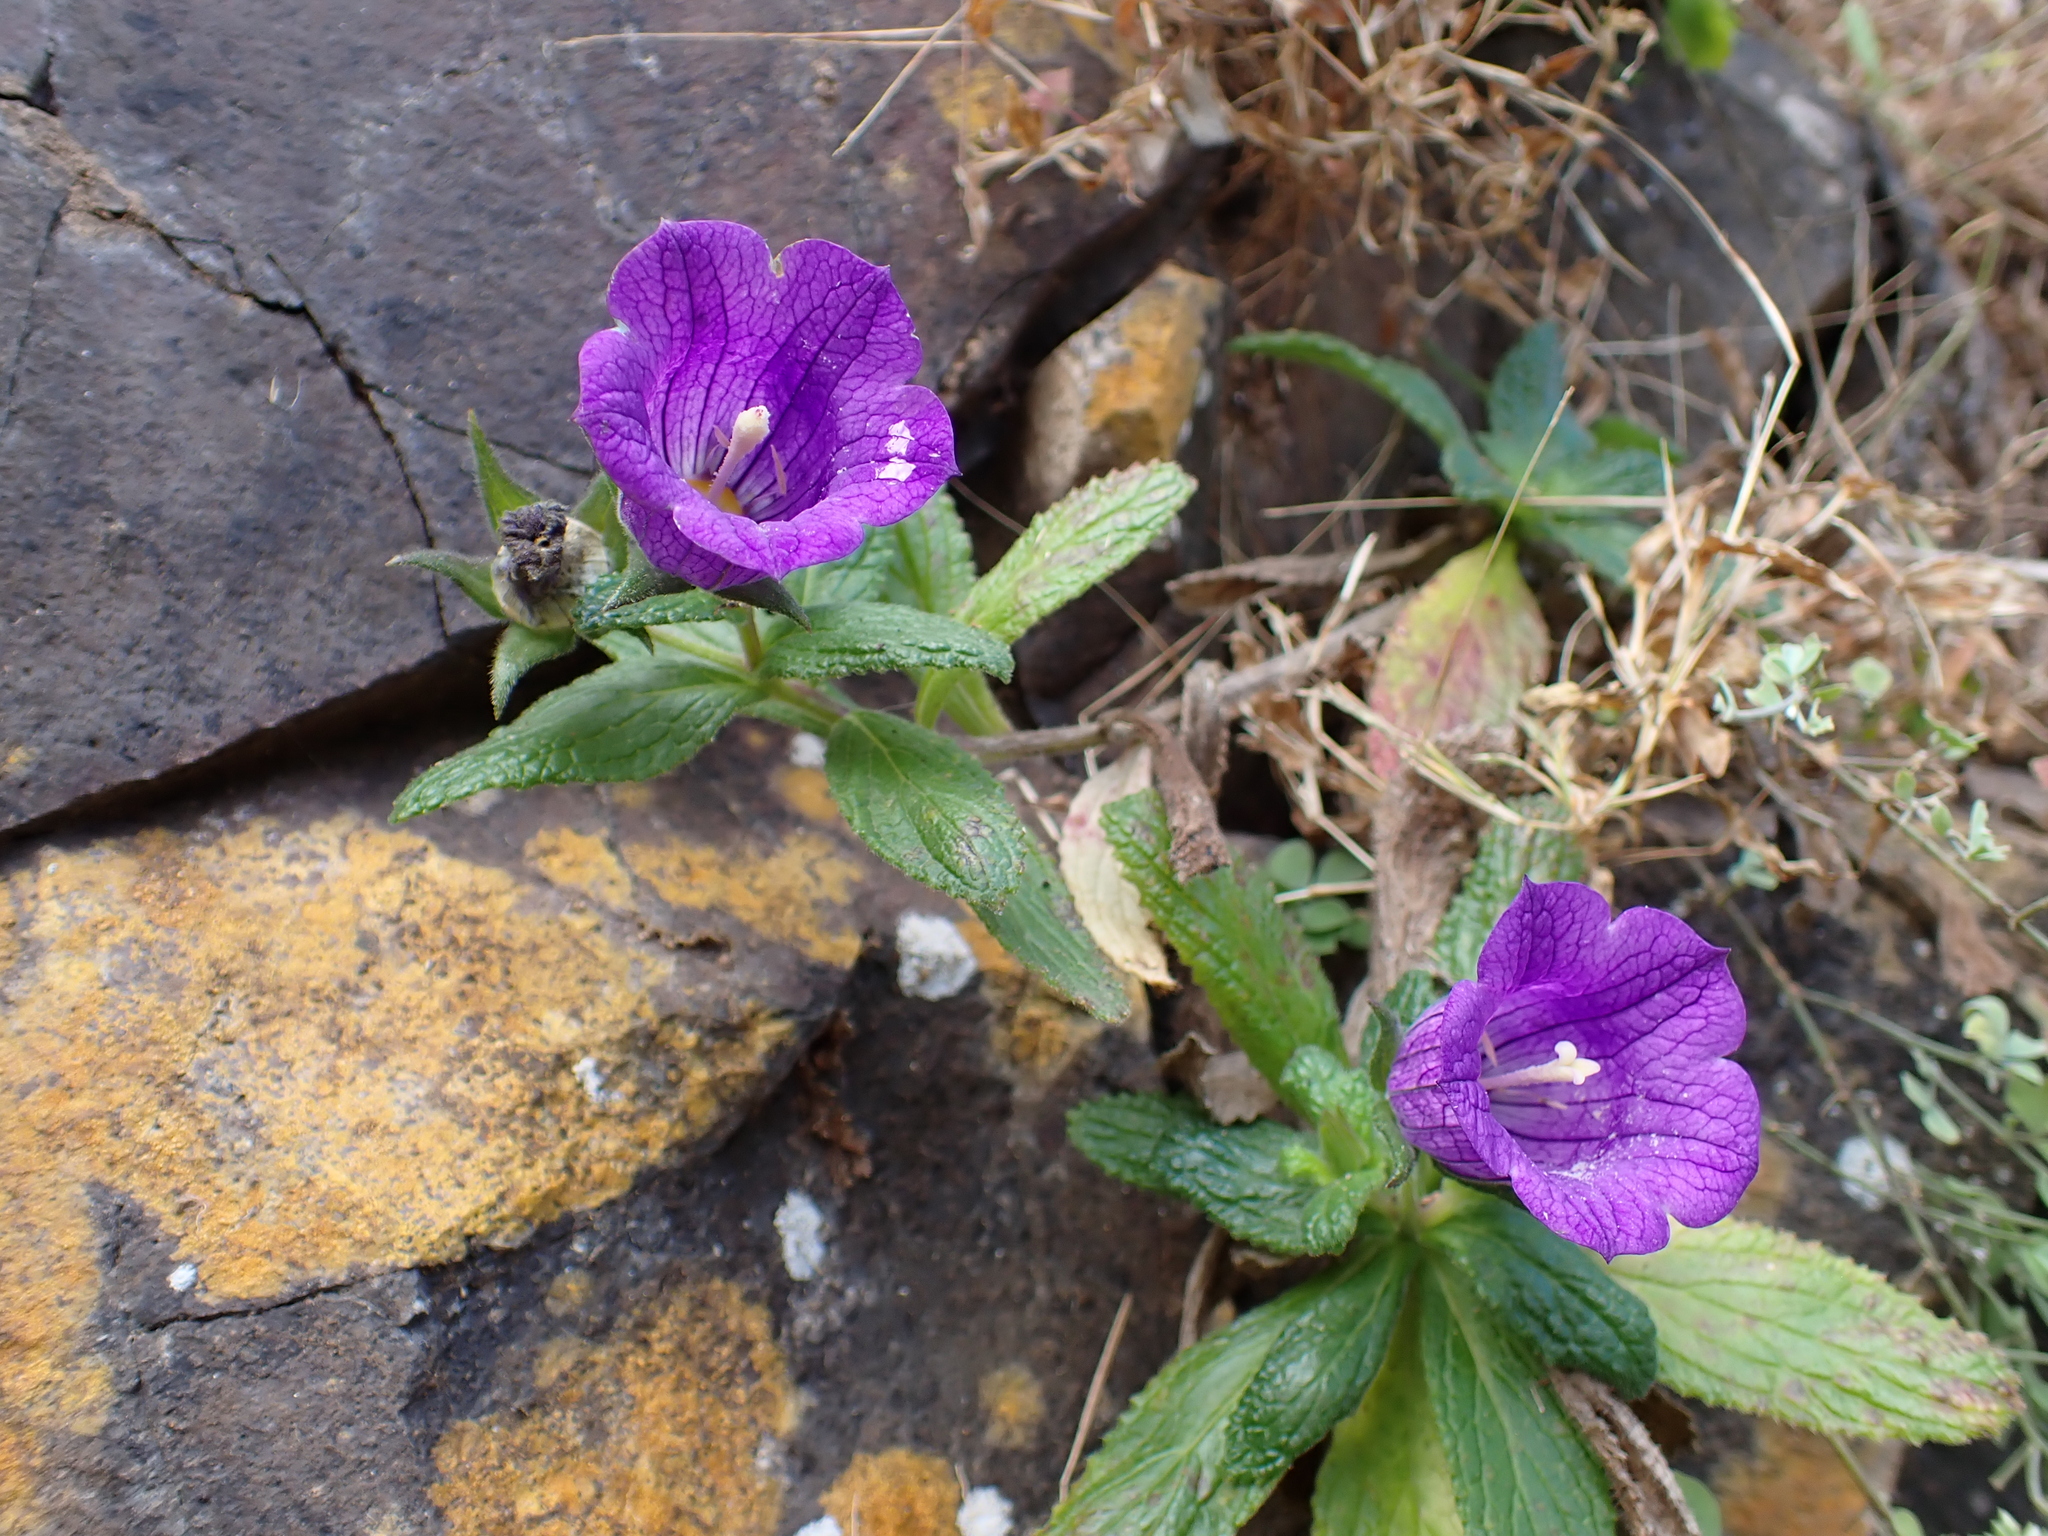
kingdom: Plantae
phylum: Tracheophyta
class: Magnoliopsida
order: Asterales
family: Campanulaceae
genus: Campanula
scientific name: Campanula jacobaea
